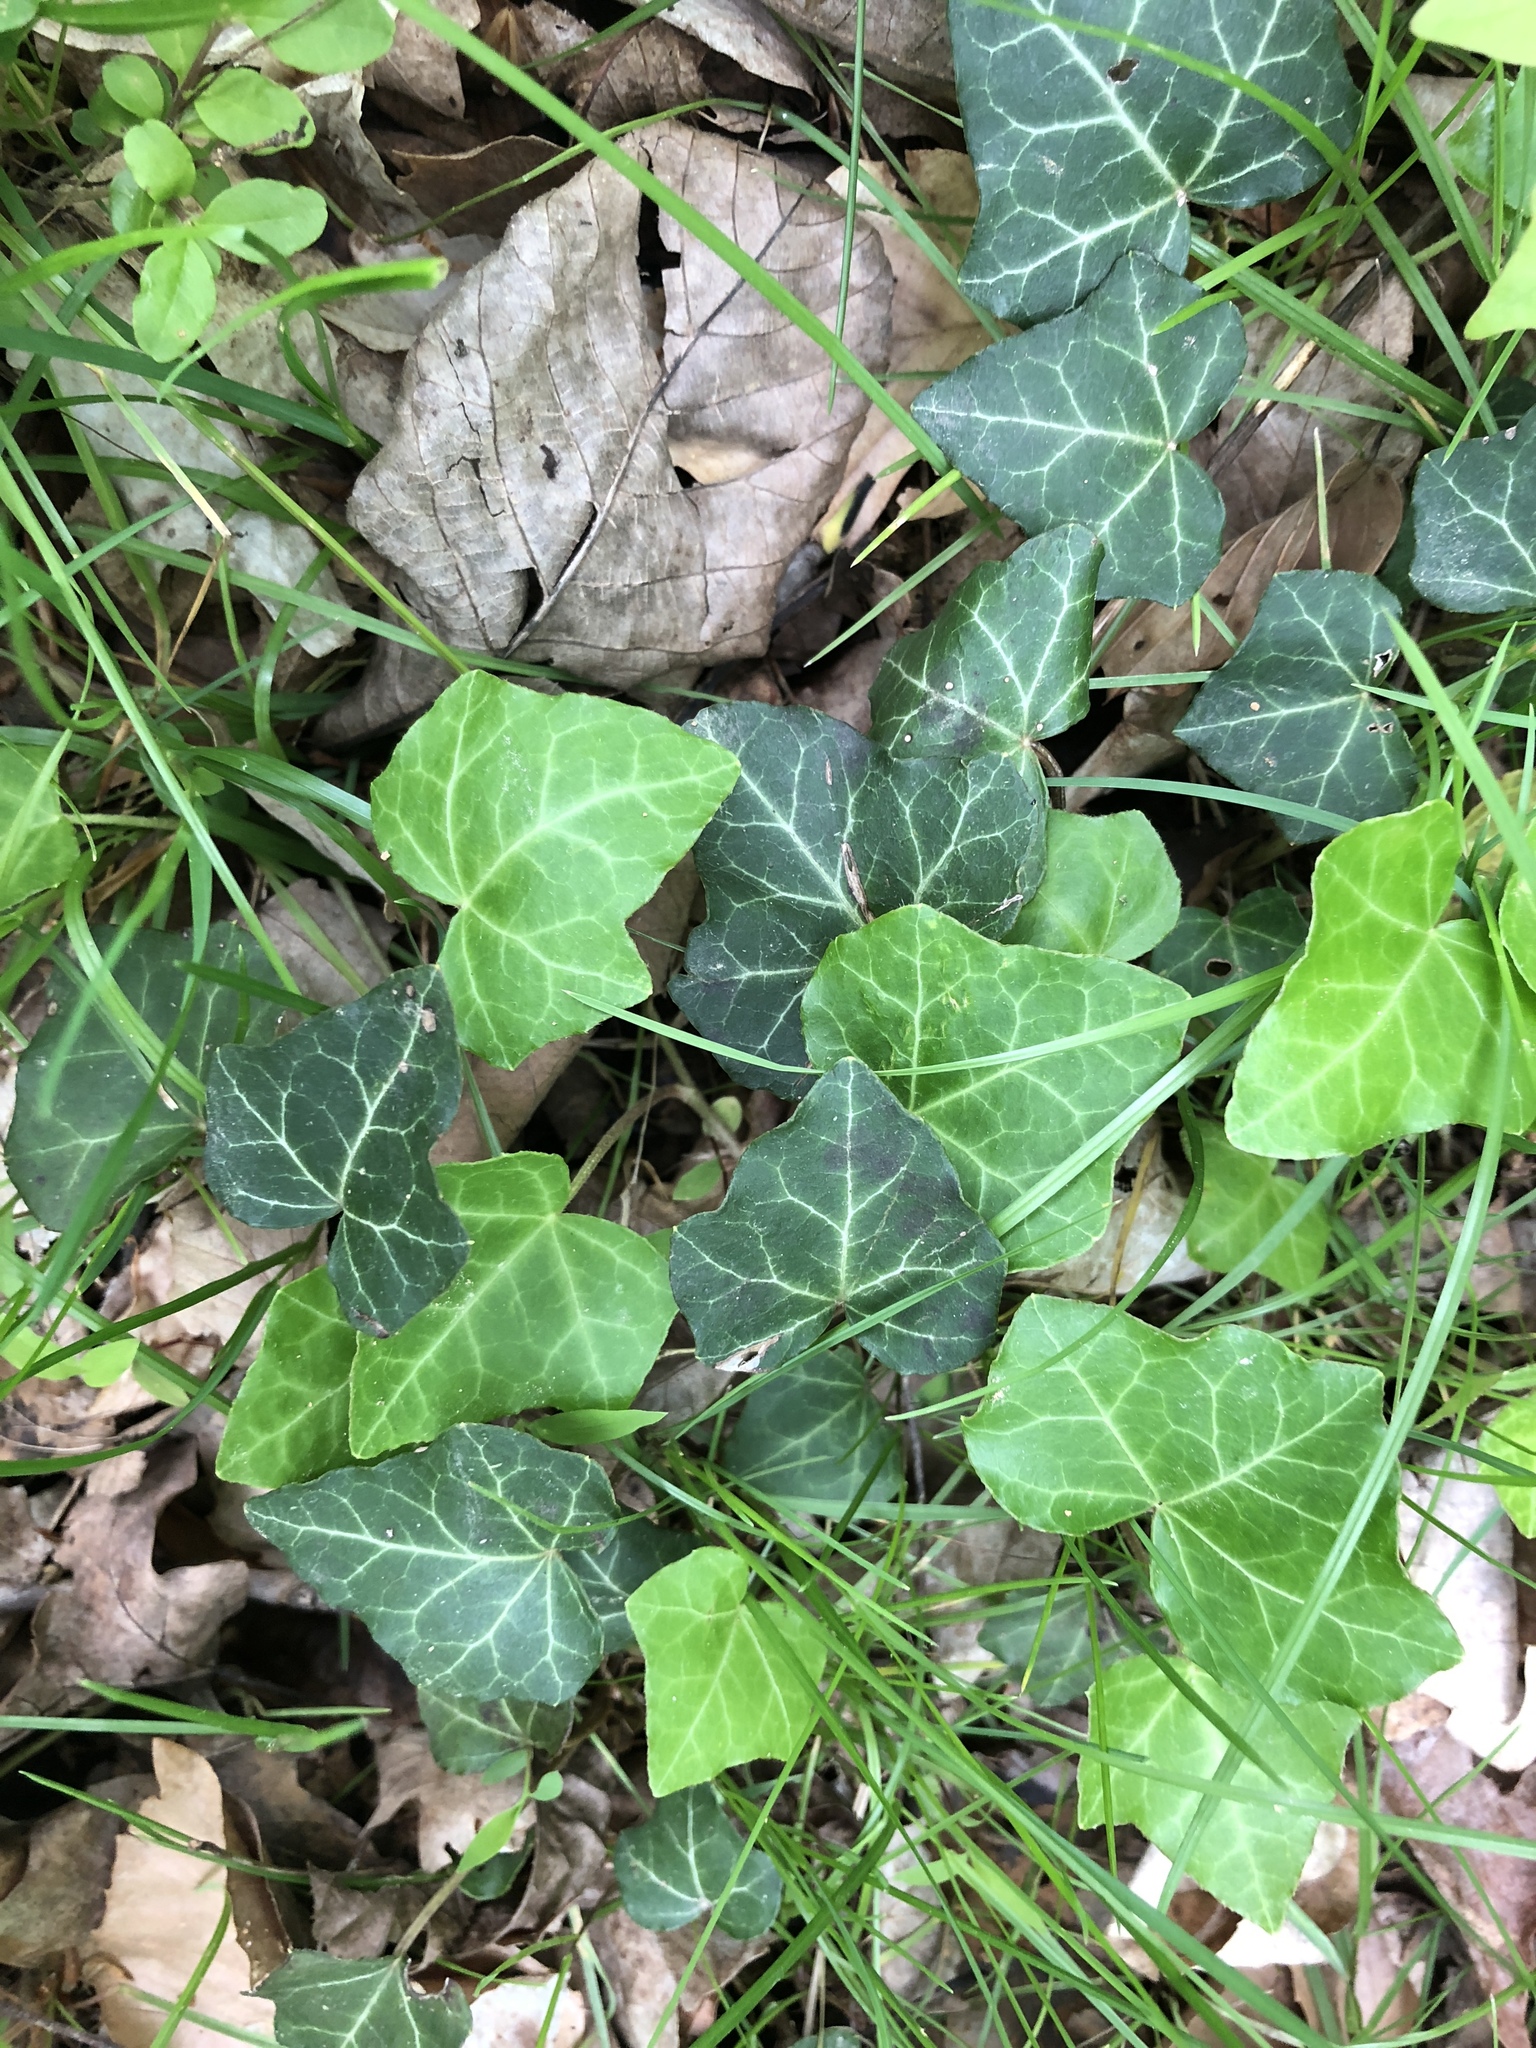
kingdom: Plantae
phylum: Tracheophyta
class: Magnoliopsida
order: Apiales
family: Araliaceae
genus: Hedera
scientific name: Hedera helix
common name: Ivy
